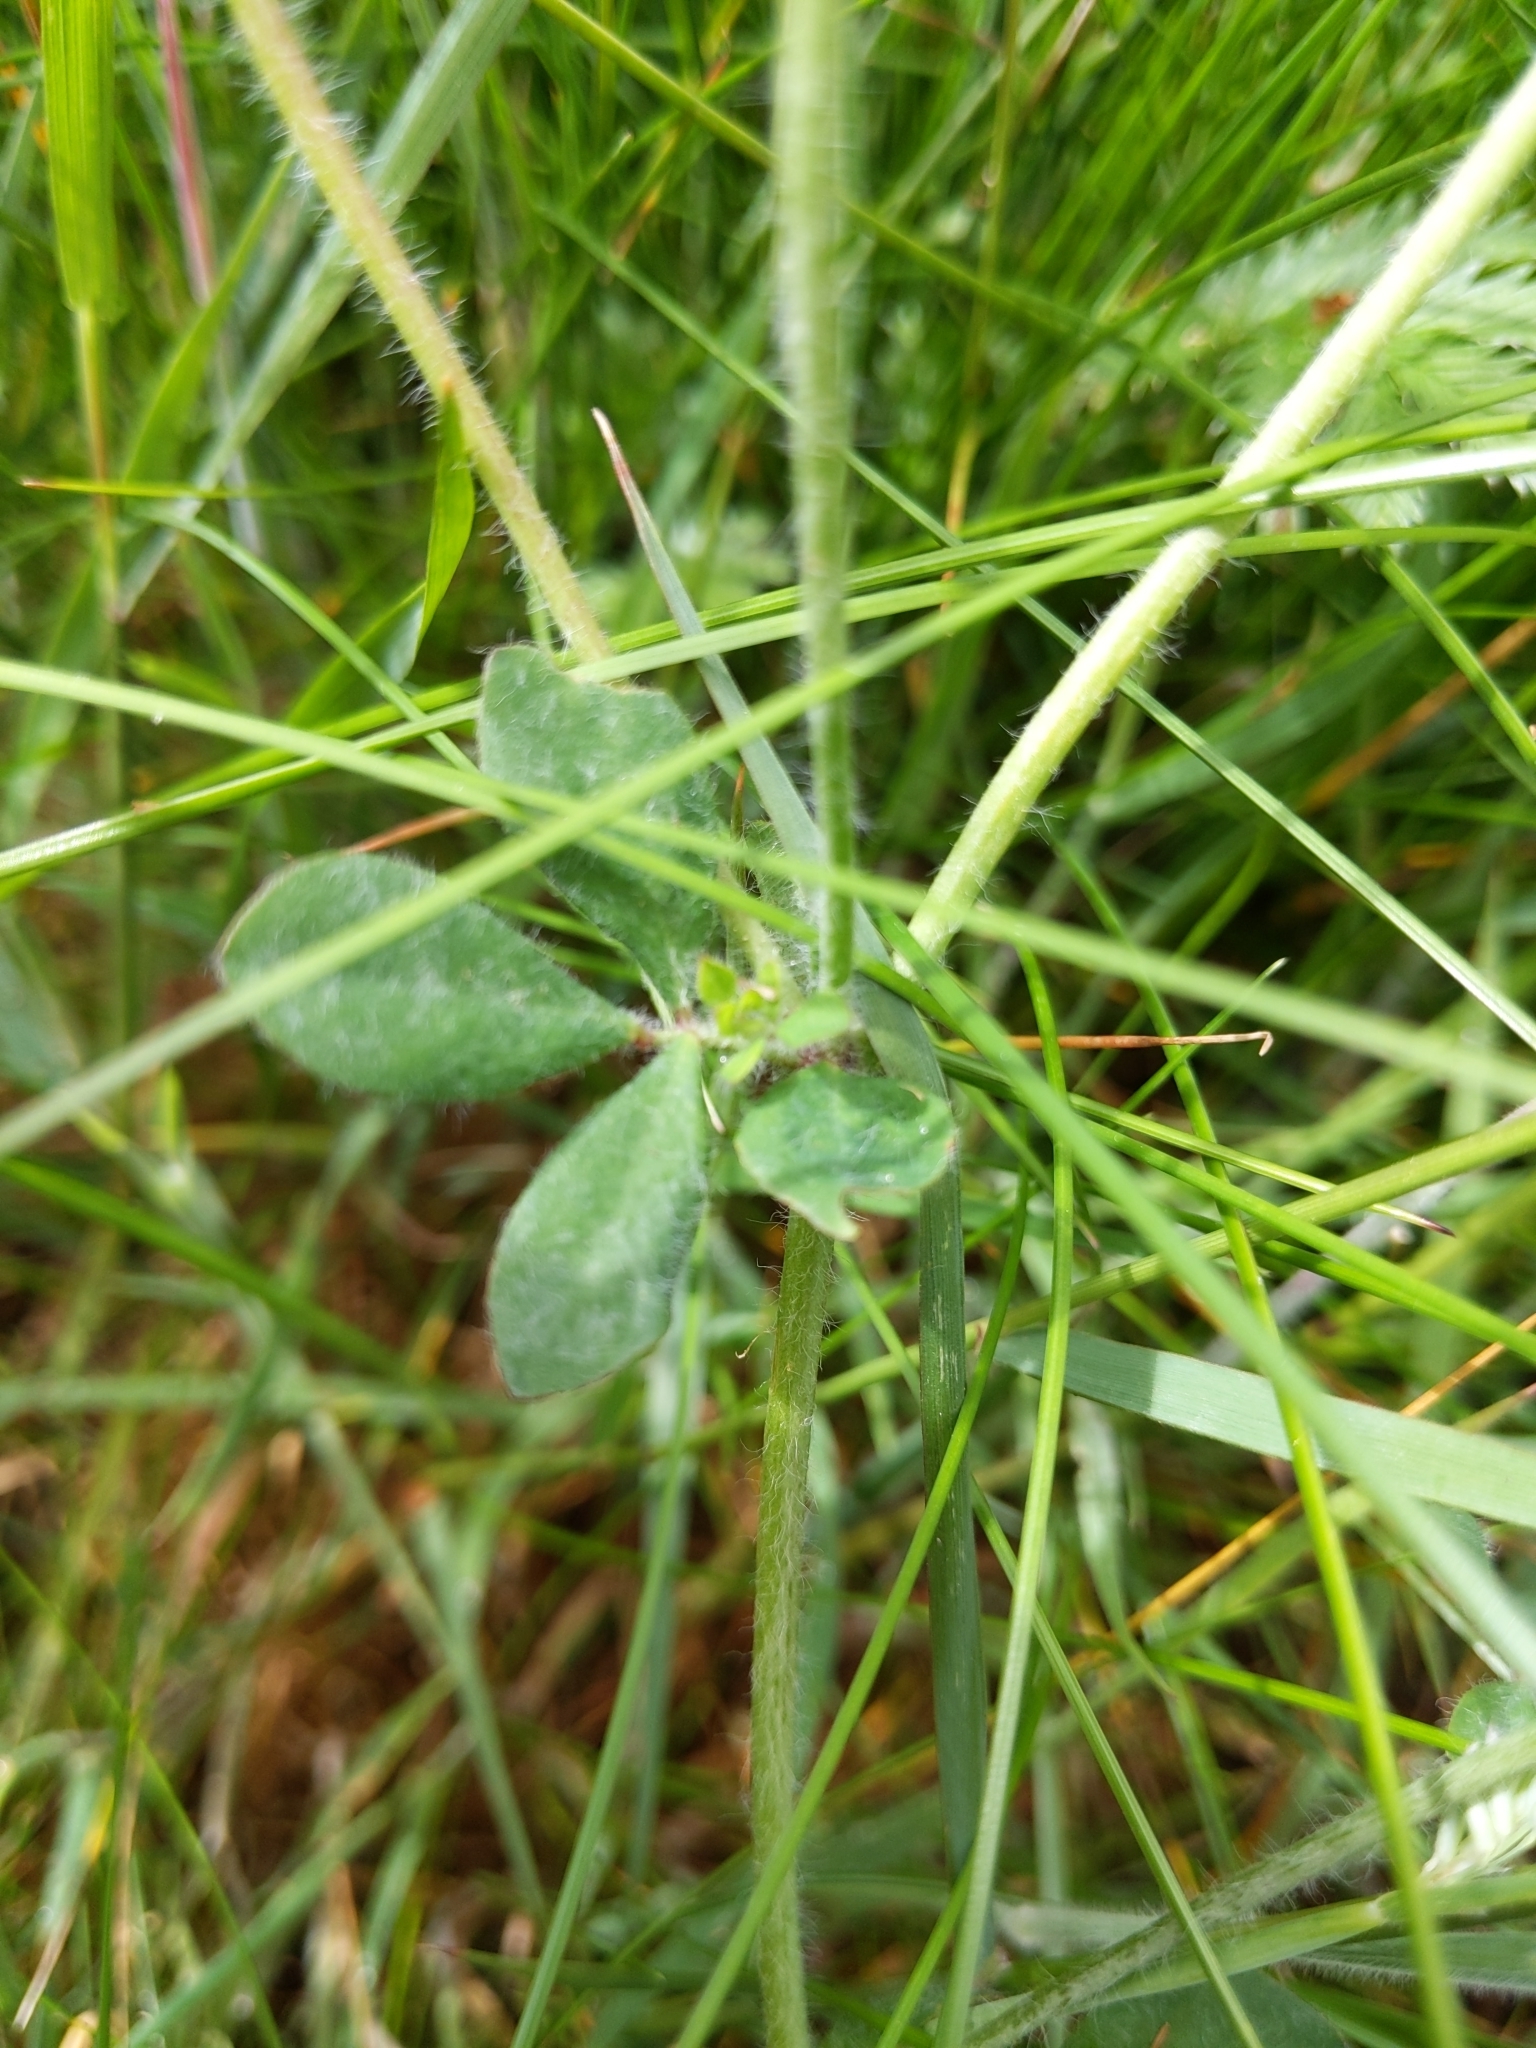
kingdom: Plantae
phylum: Tracheophyta
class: Magnoliopsida
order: Fabales
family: Fabaceae
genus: Lotus
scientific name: Lotus pedunculatus
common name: Greater birdsfoot-trefoil
